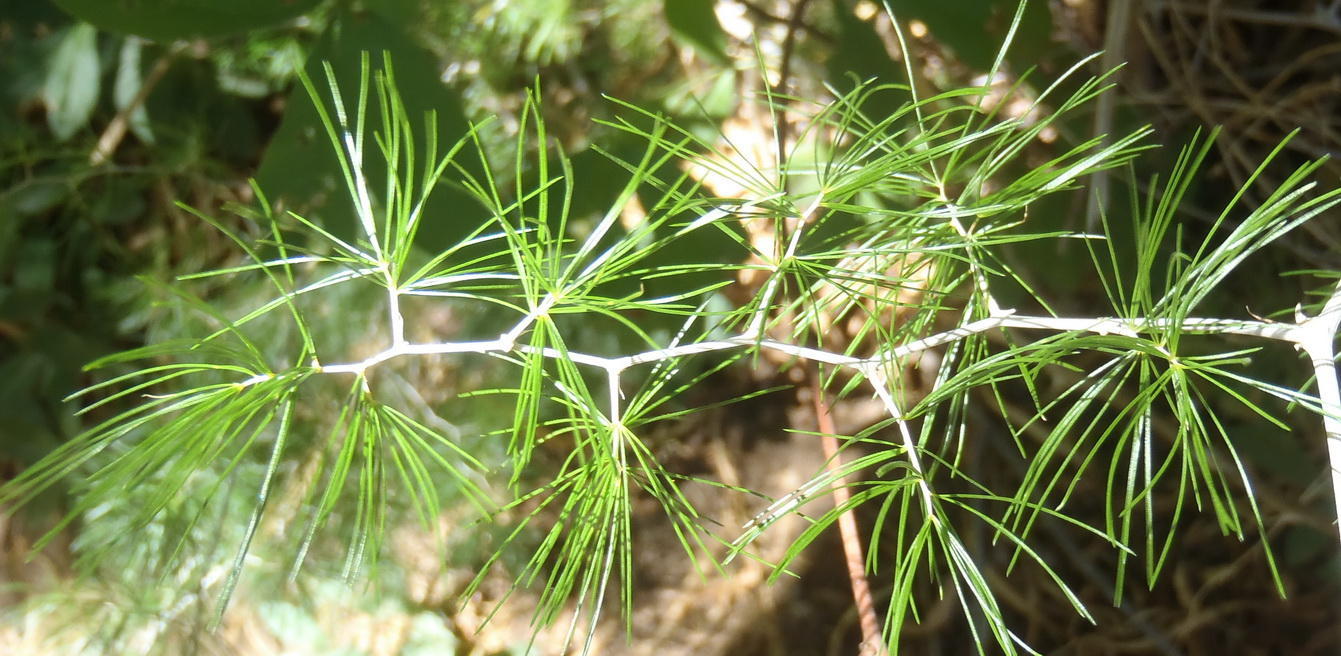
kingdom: Plantae
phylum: Tracheophyta
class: Liliopsida
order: Asparagales
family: Asparagaceae
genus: Asparagus
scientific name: Asparagus retrofractus
